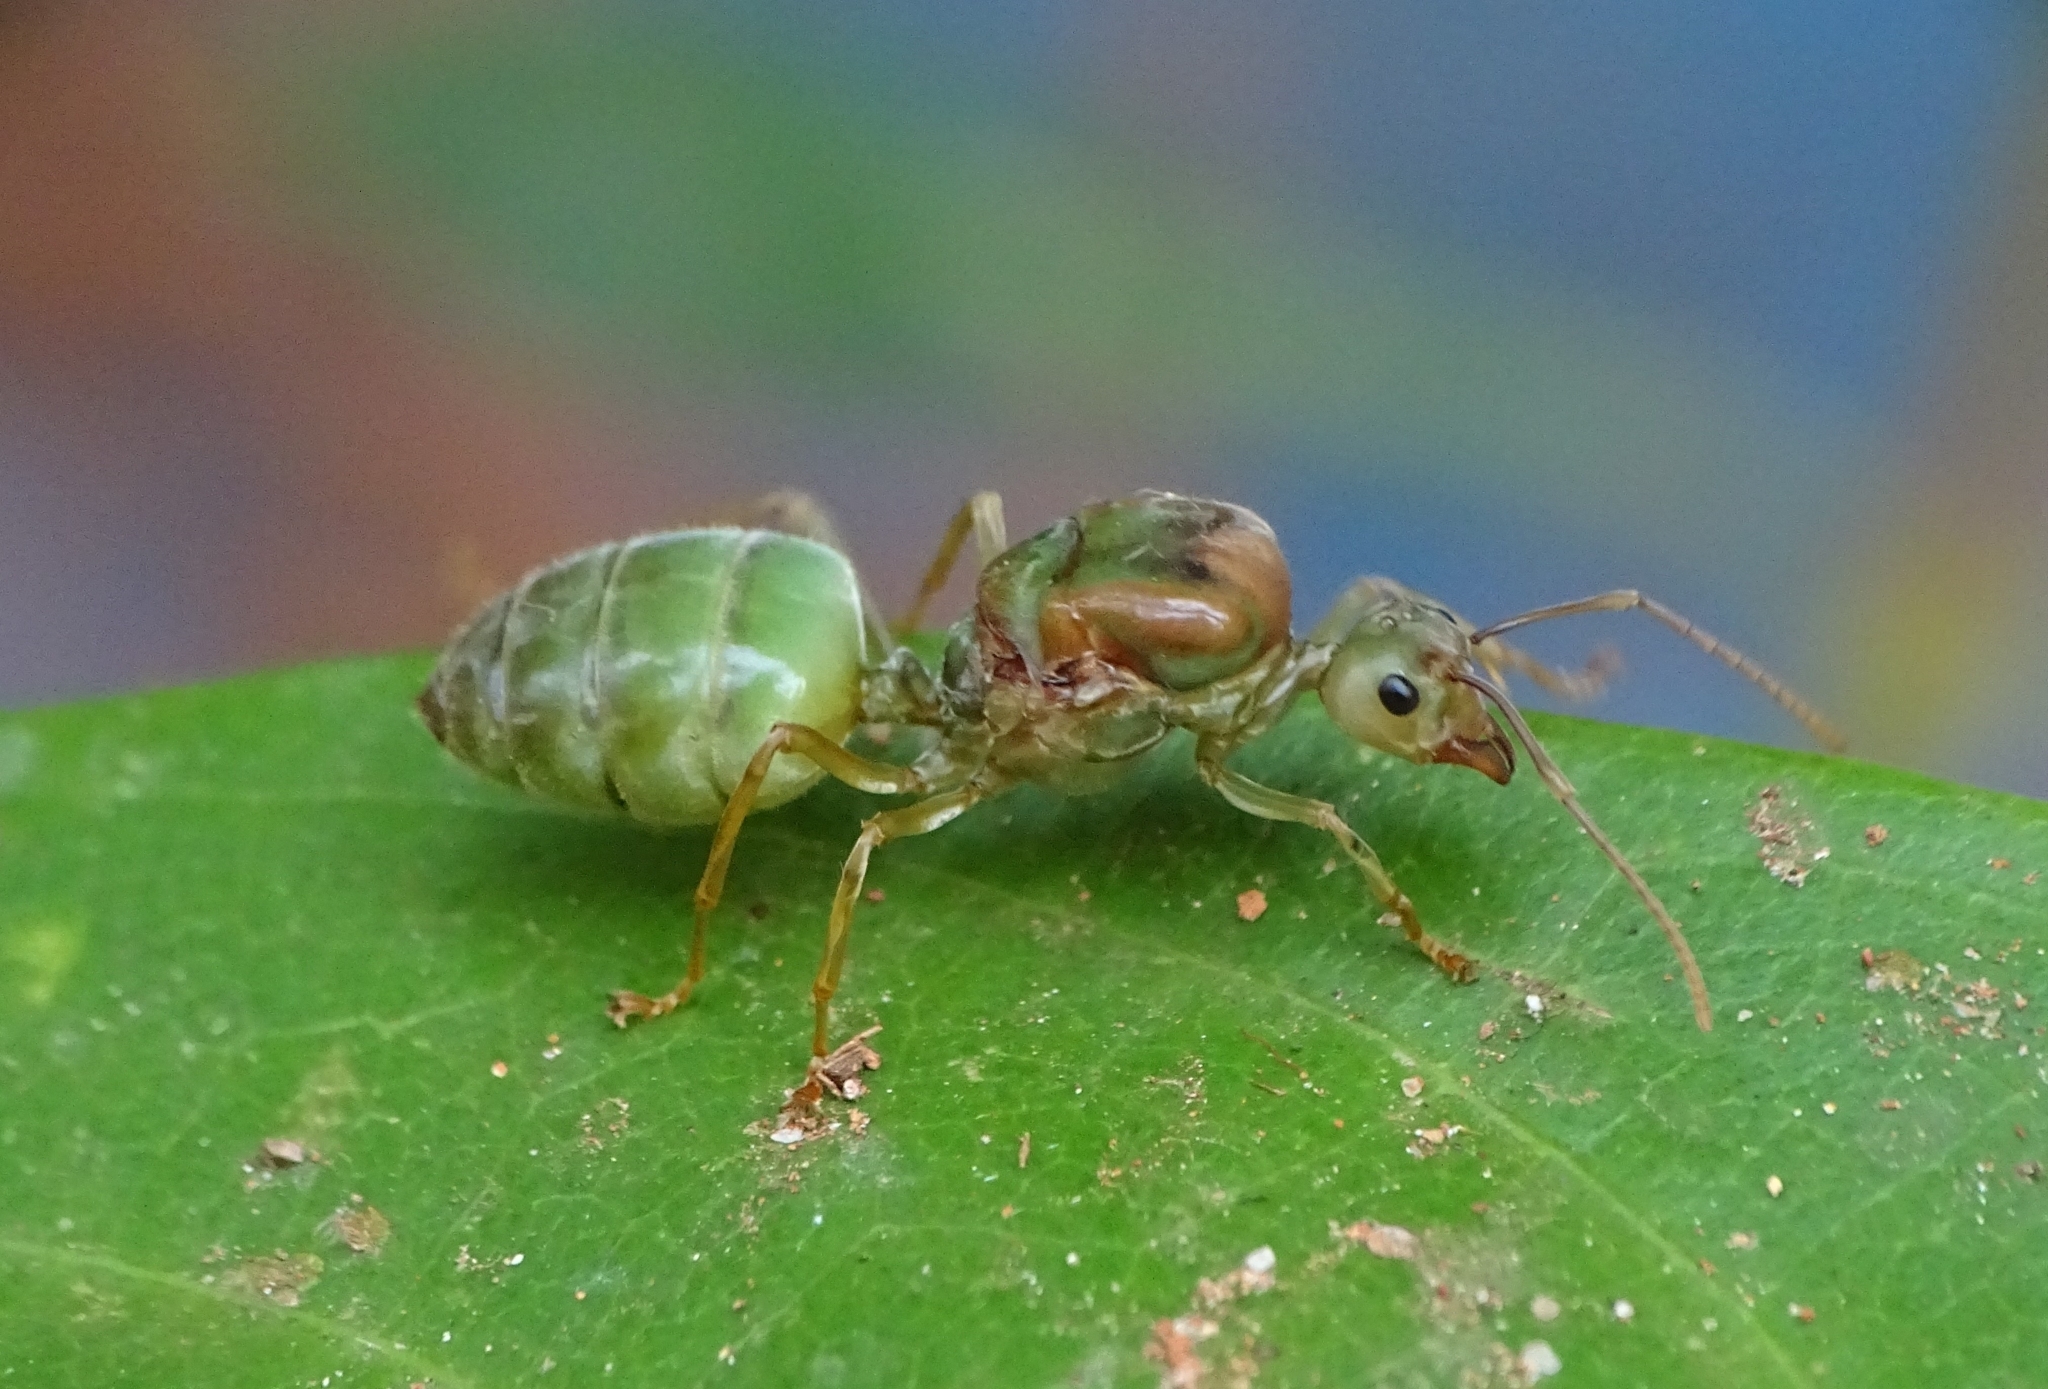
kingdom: Animalia
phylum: Arthropoda
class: Insecta
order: Hymenoptera
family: Formicidae
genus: Oecophylla
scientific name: Oecophylla smaragdina
